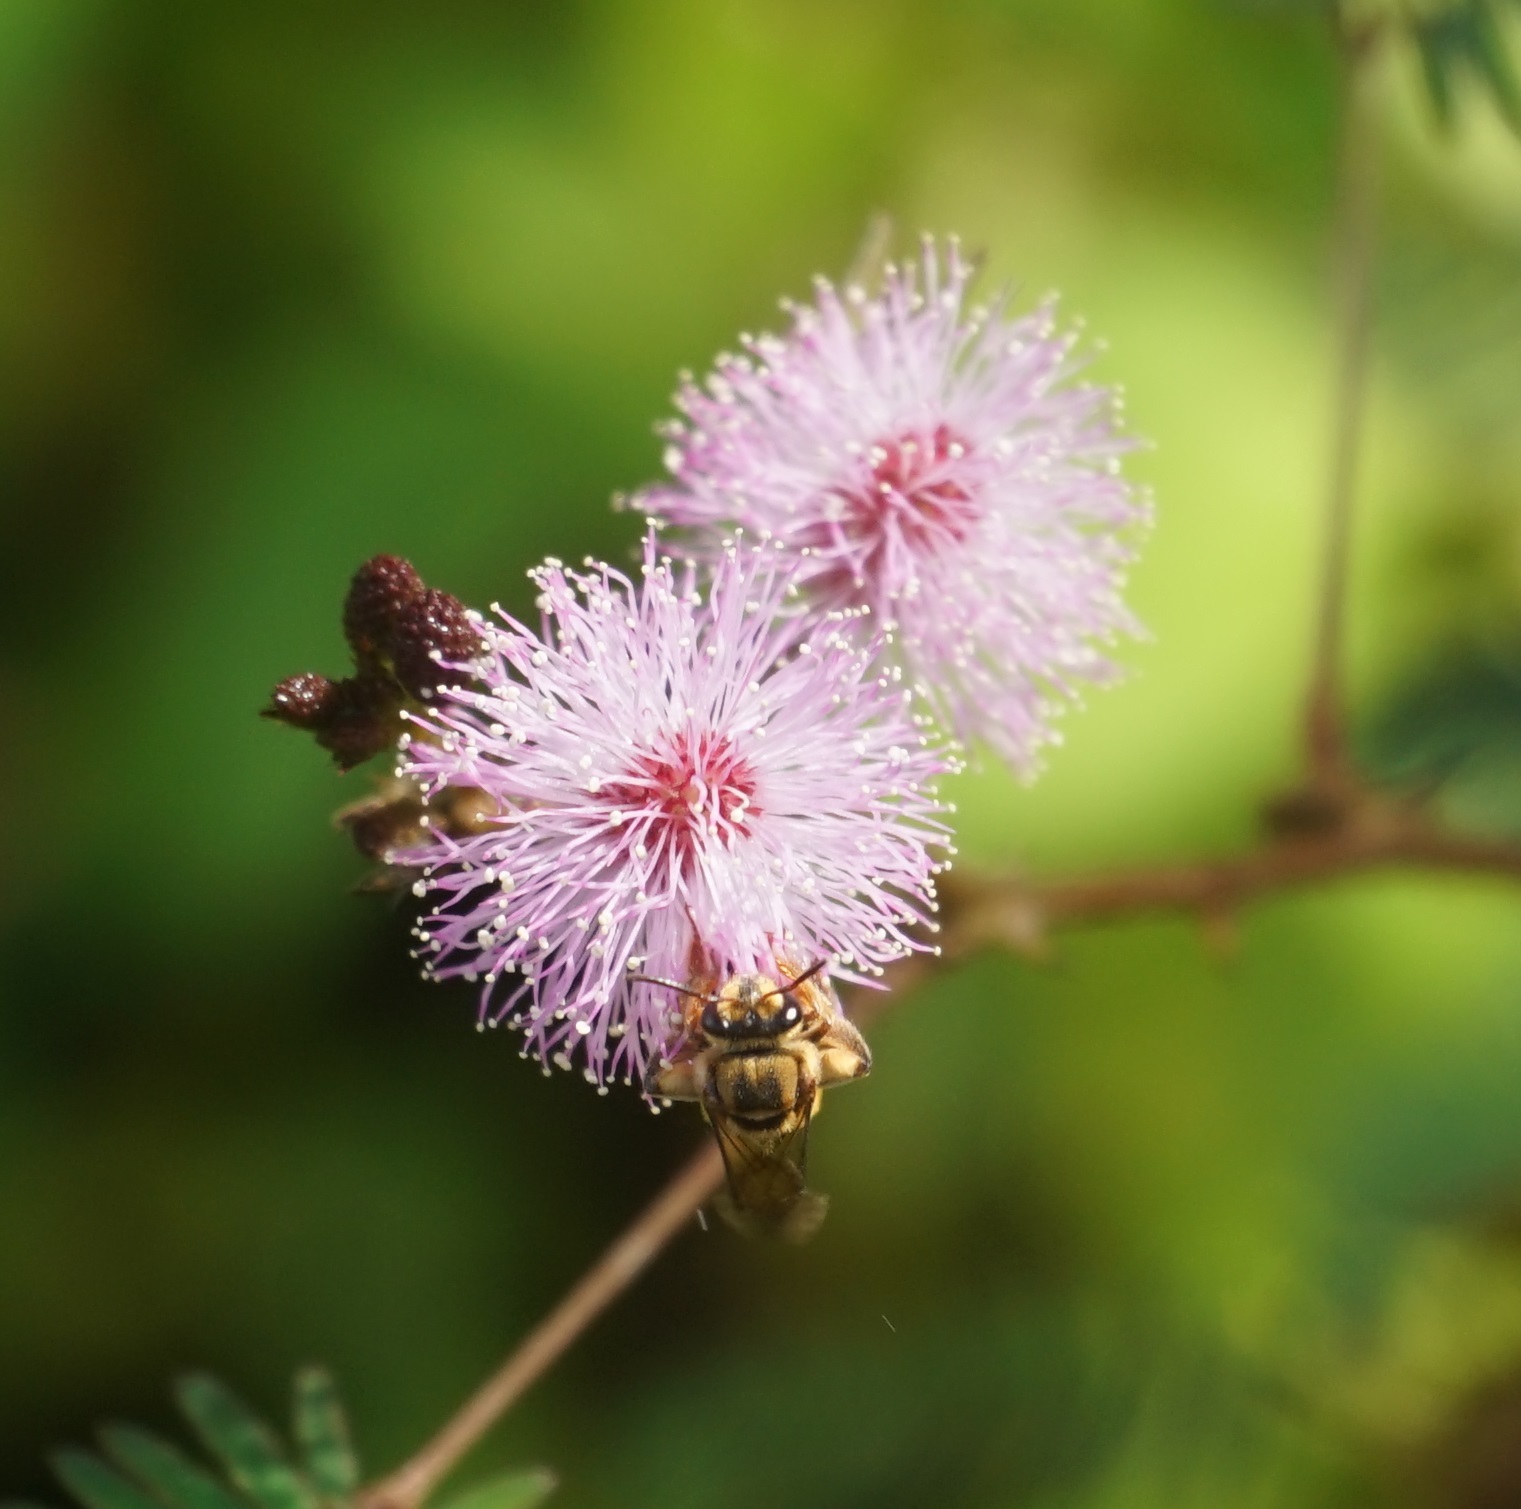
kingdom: Animalia
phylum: Arthropoda
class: Insecta
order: Hymenoptera
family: Halictidae
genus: Mellitidia
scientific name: Mellitidia tomentifera
